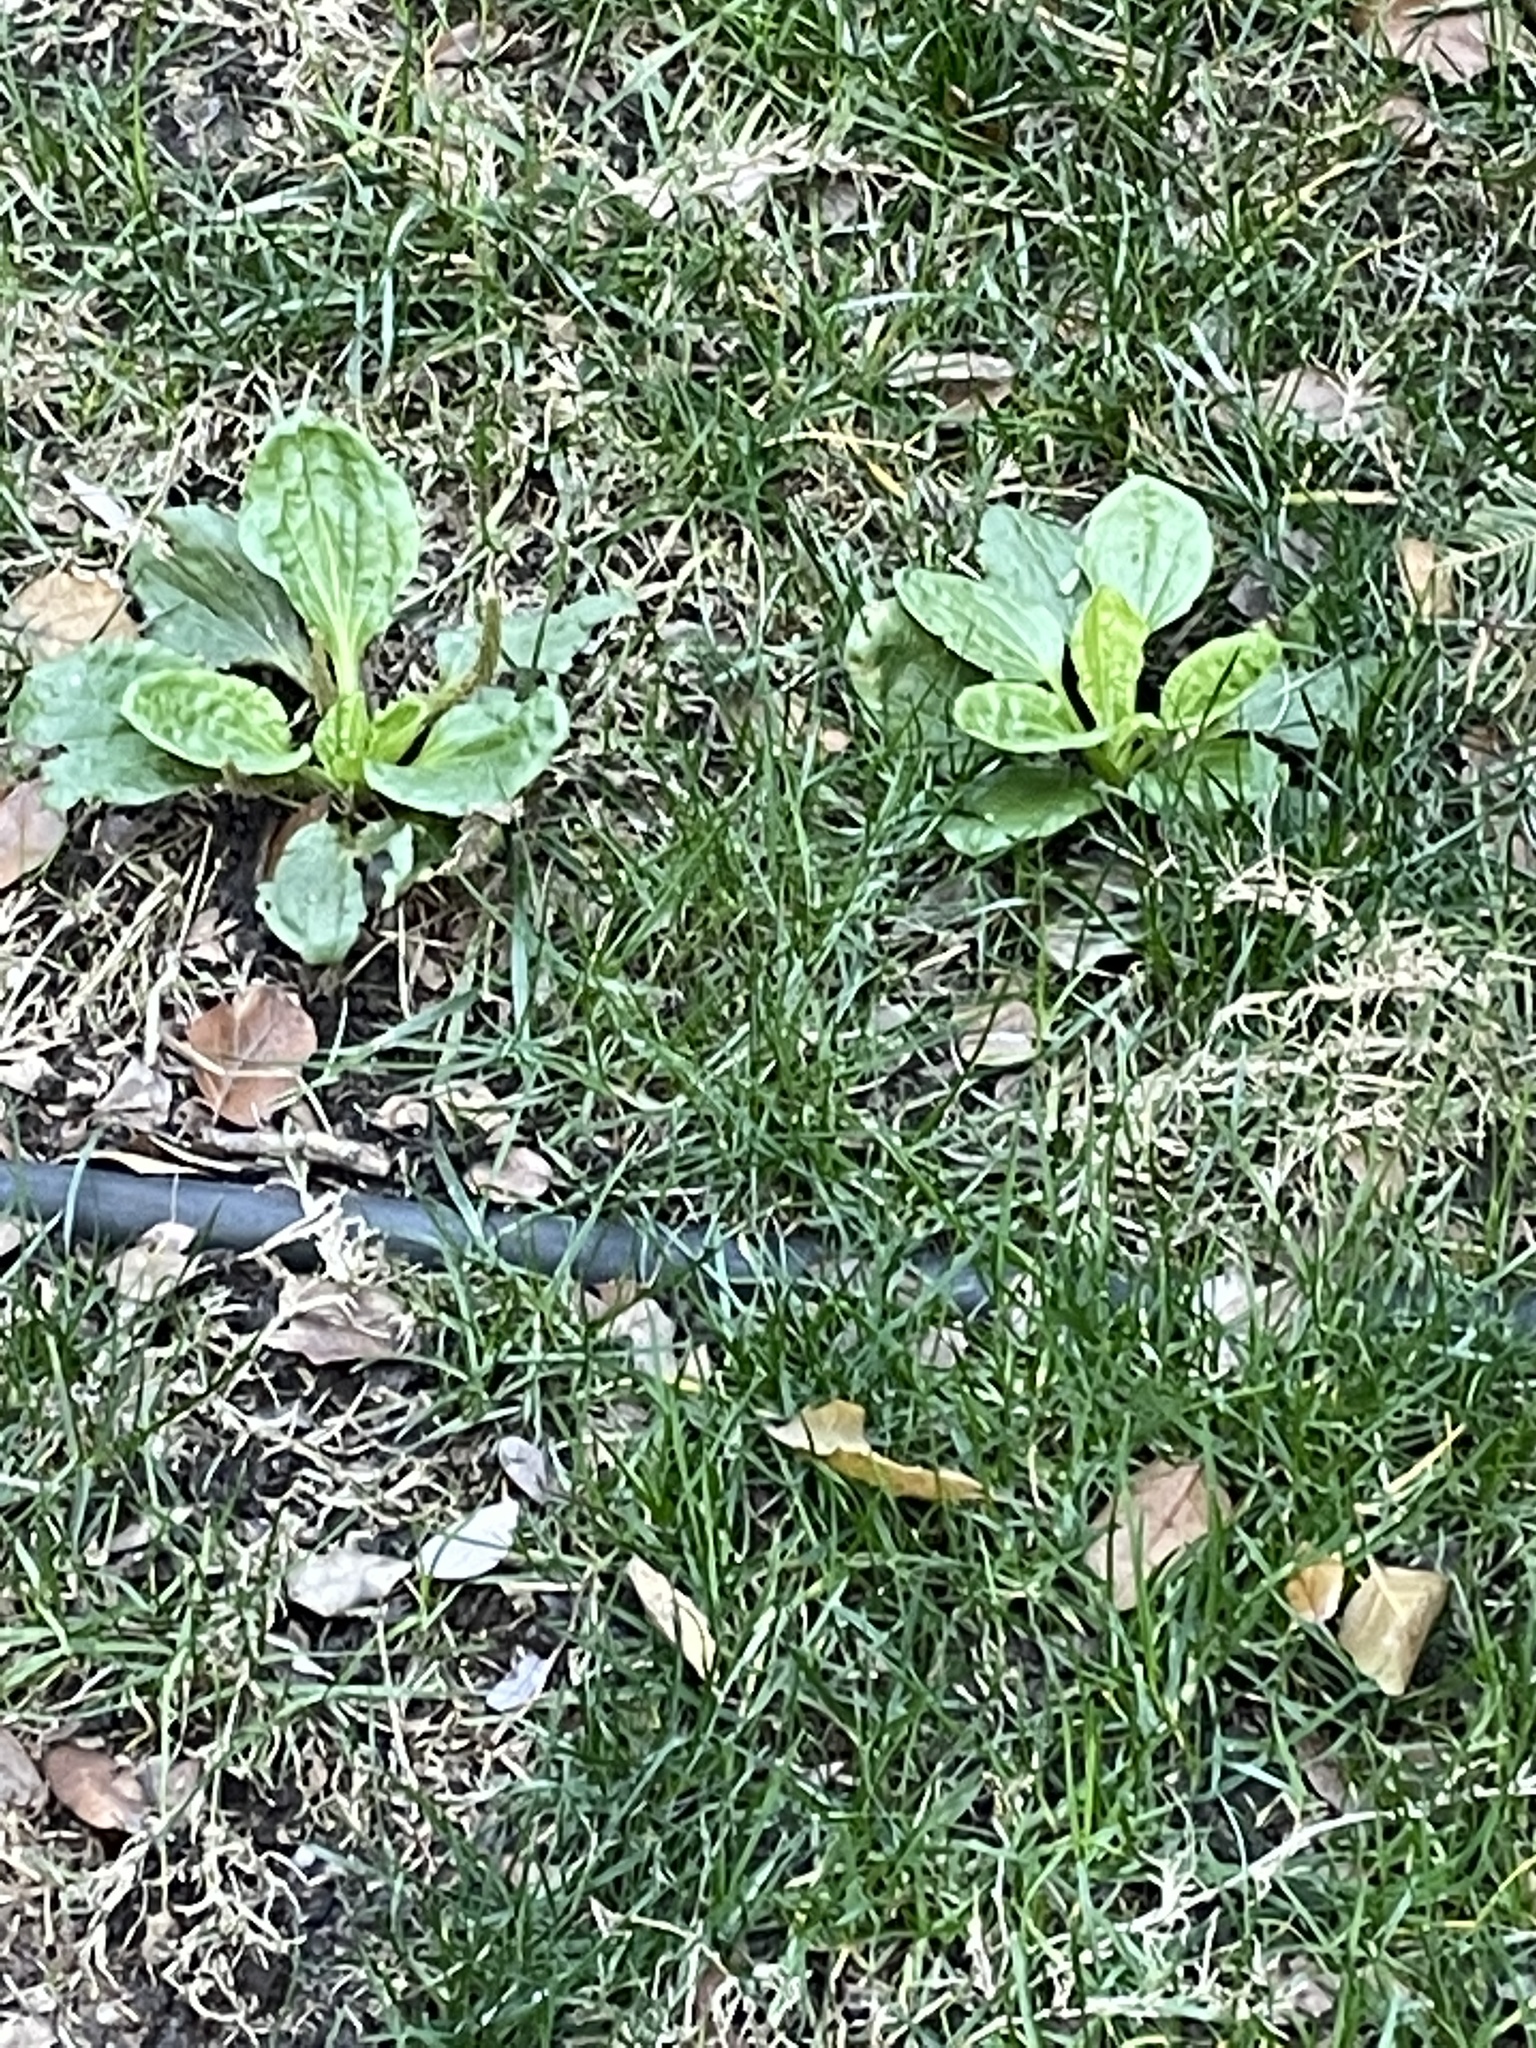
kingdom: Plantae
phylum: Tracheophyta
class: Magnoliopsida
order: Lamiales
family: Plantaginaceae
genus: Plantago
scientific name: Plantago major
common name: Common plantain
